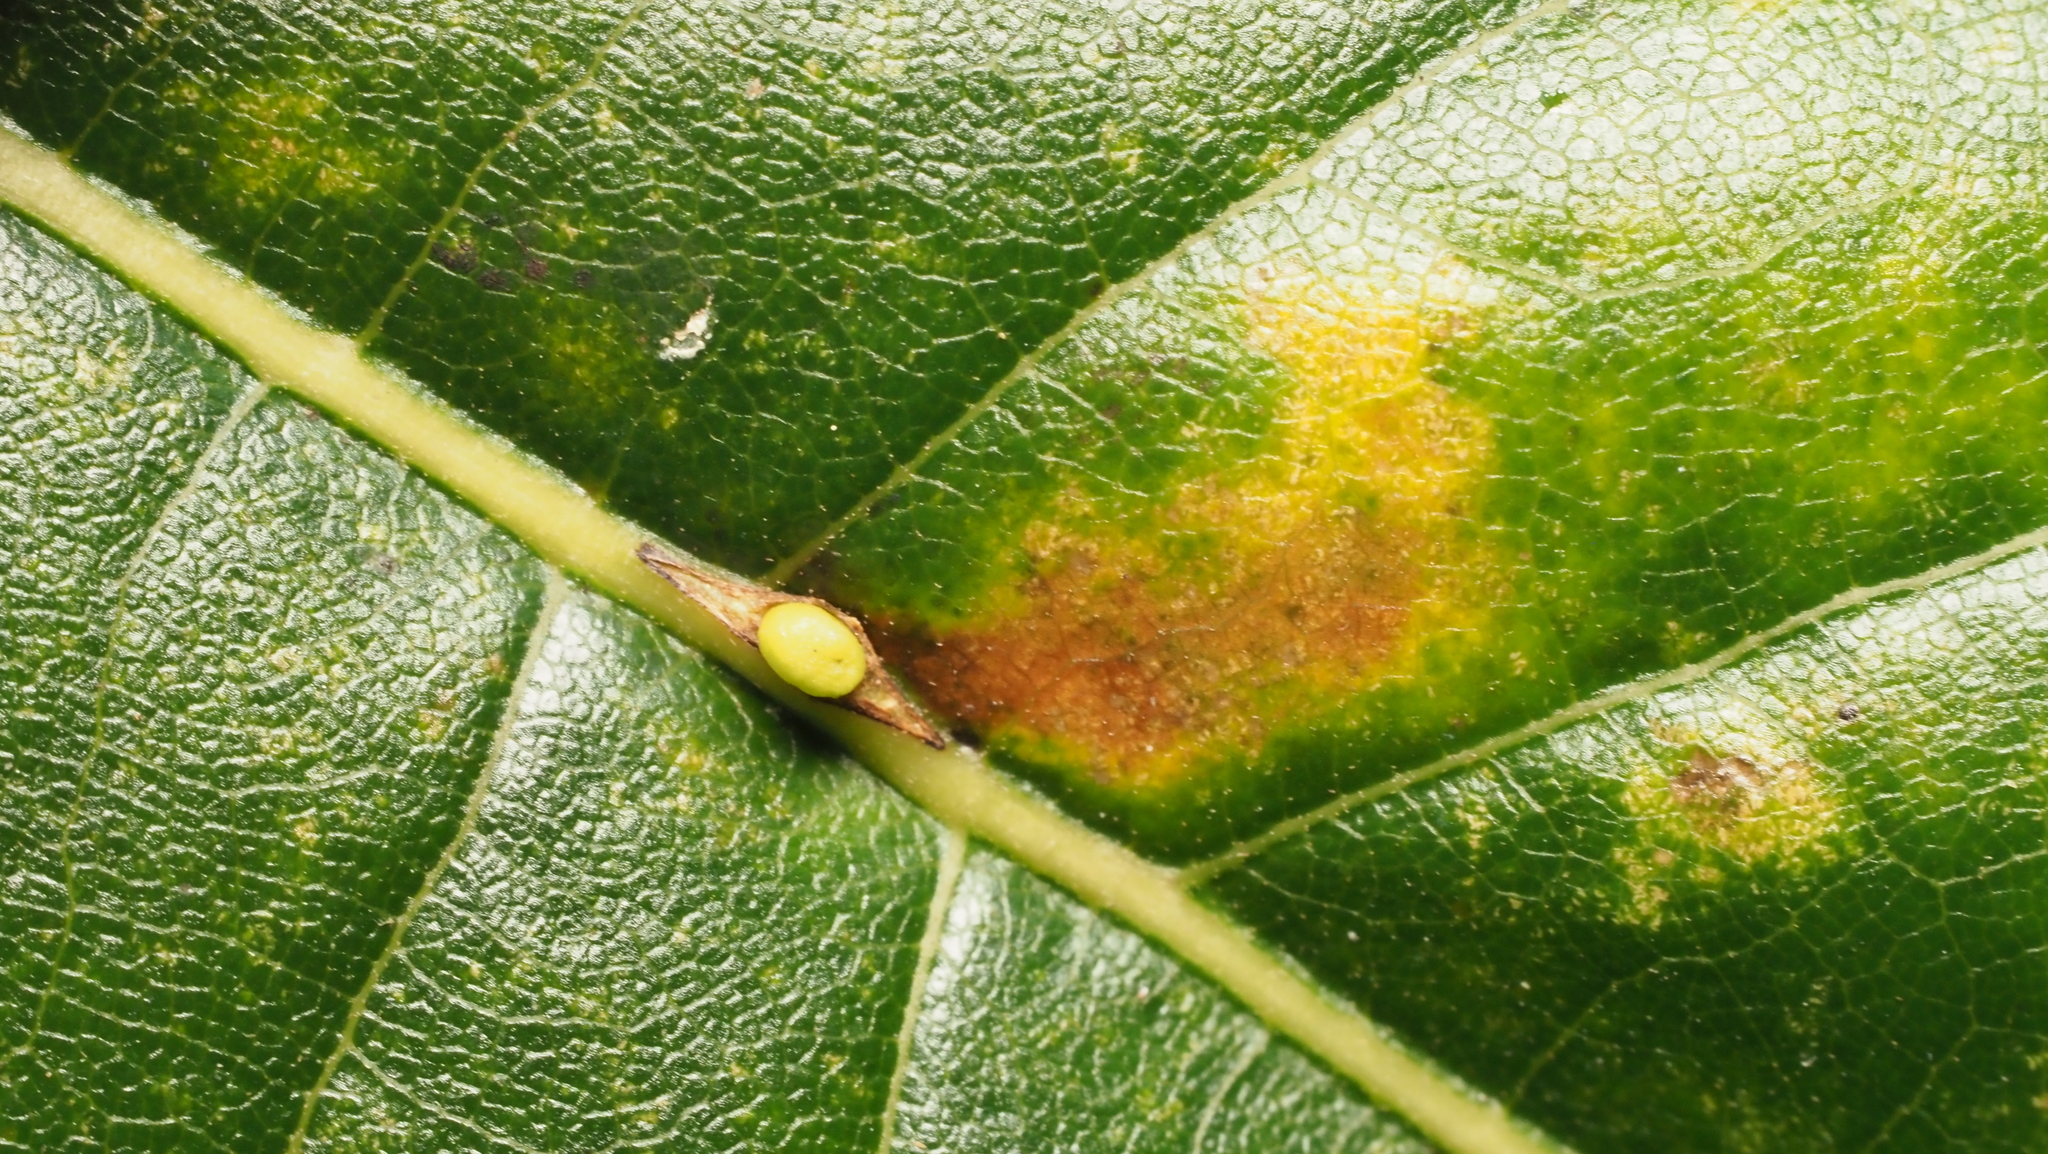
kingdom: Animalia
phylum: Arthropoda
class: Insecta
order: Hymenoptera
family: Cynipidae
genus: Kokkocynips
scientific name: Kokkocynips decidua
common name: Oak wheat gall
